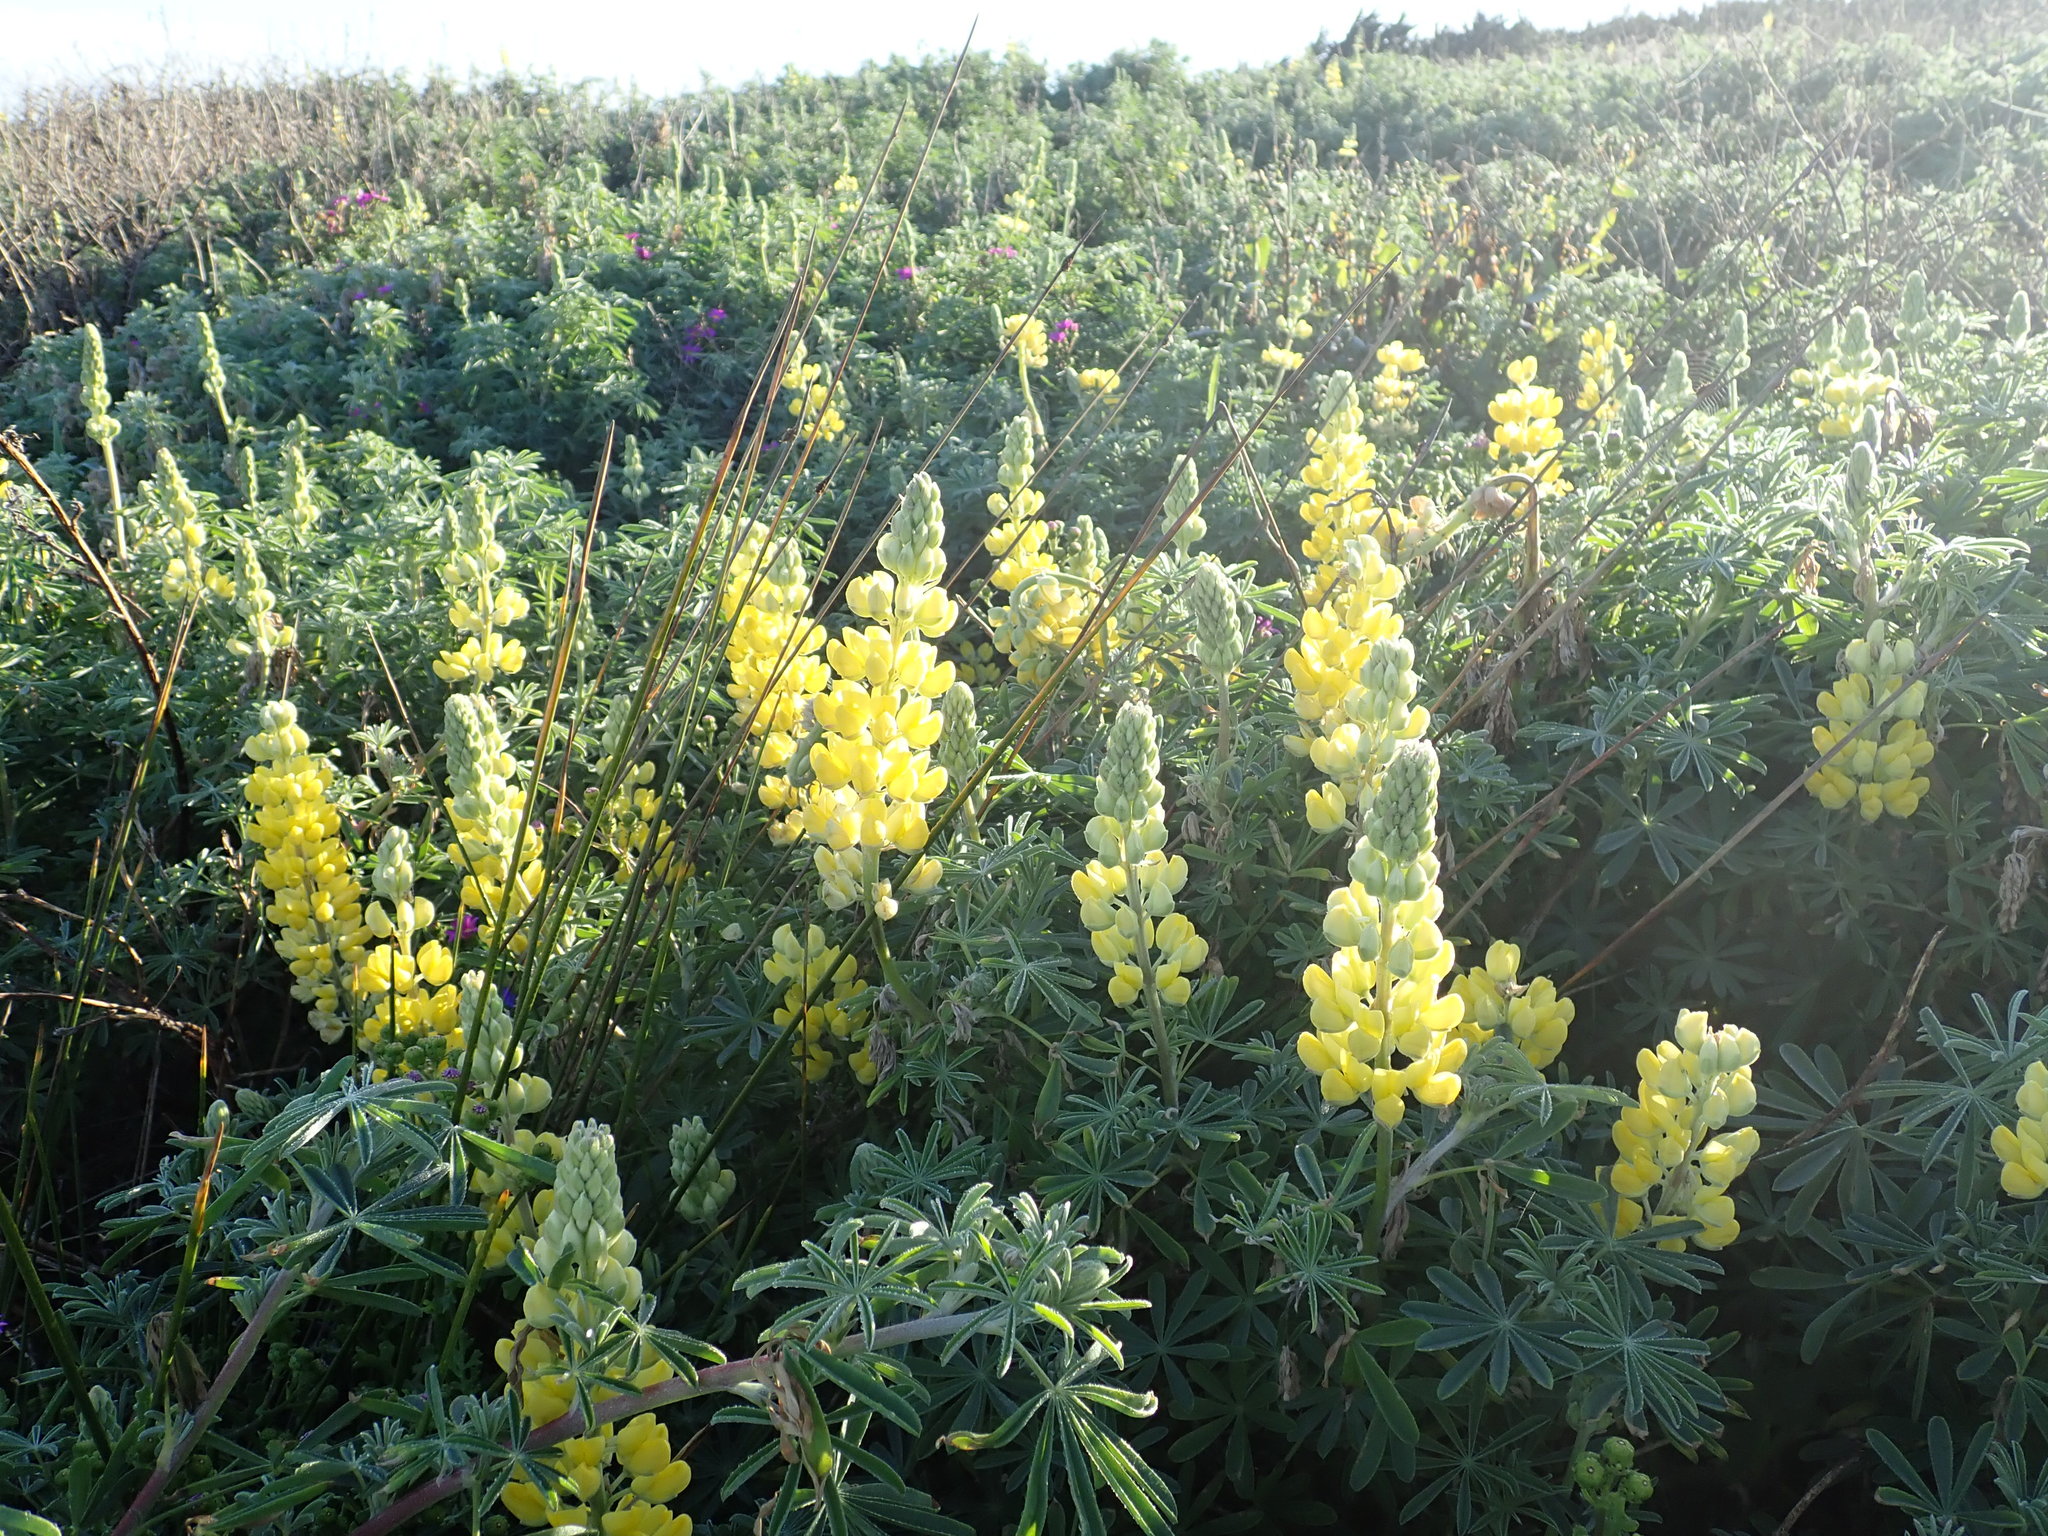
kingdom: Plantae
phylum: Tracheophyta
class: Magnoliopsida
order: Fabales
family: Fabaceae
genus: Lupinus
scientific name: Lupinus arboreus
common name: Yellow bush lupine
